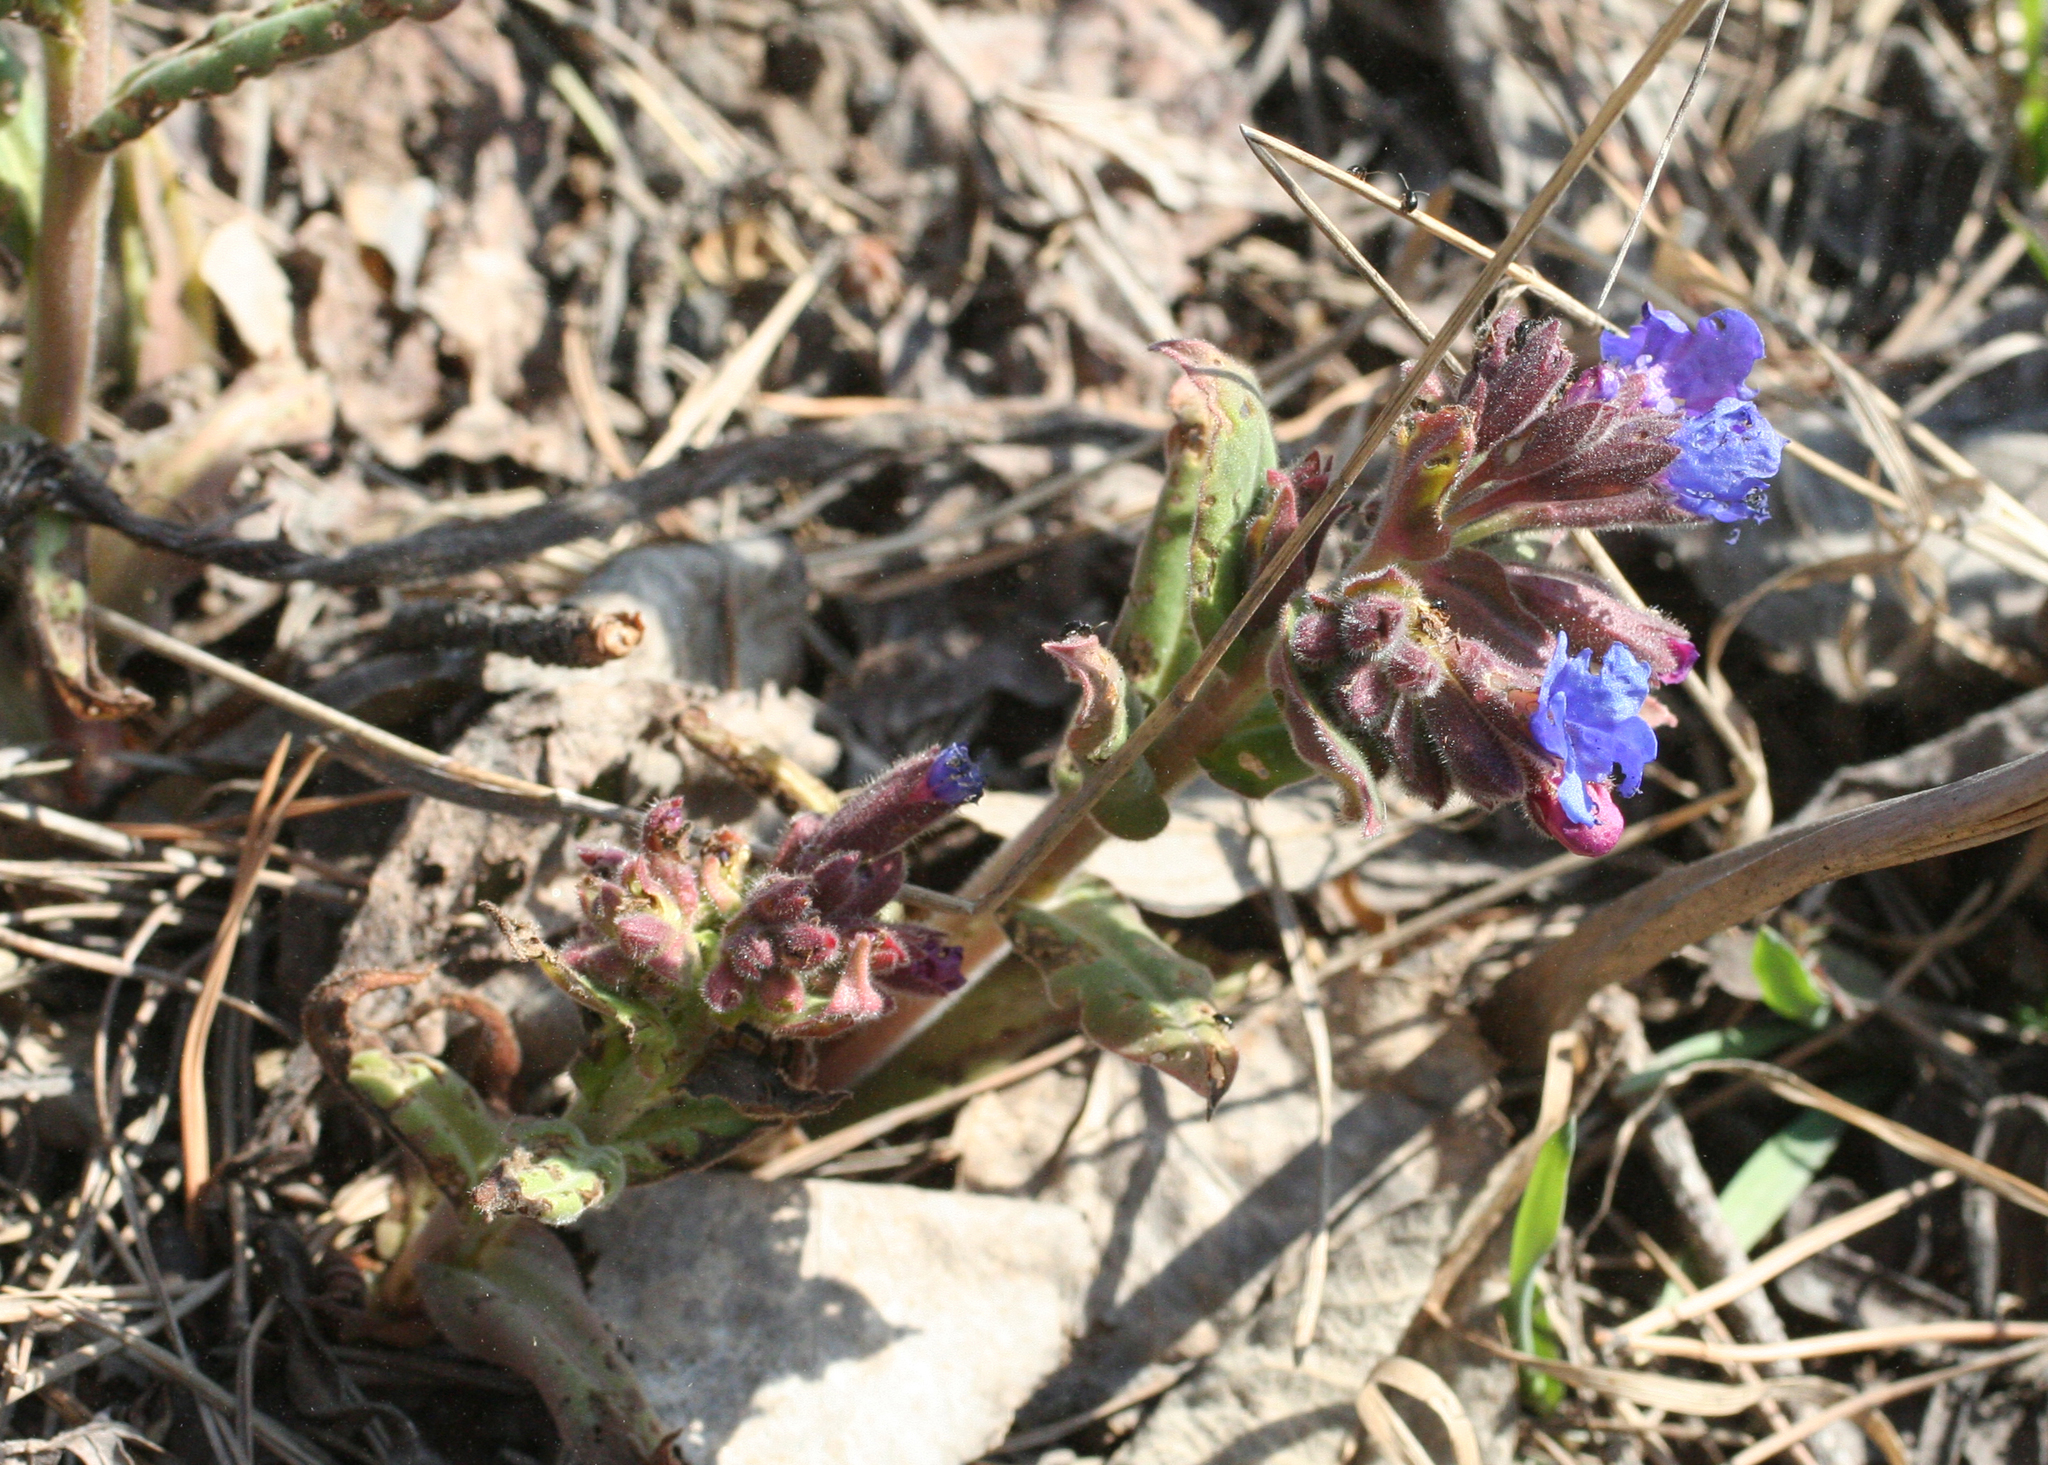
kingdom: Plantae
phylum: Tracheophyta
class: Magnoliopsida
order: Boraginales
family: Boraginaceae
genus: Pulmonaria
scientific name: Pulmonaria mollis
